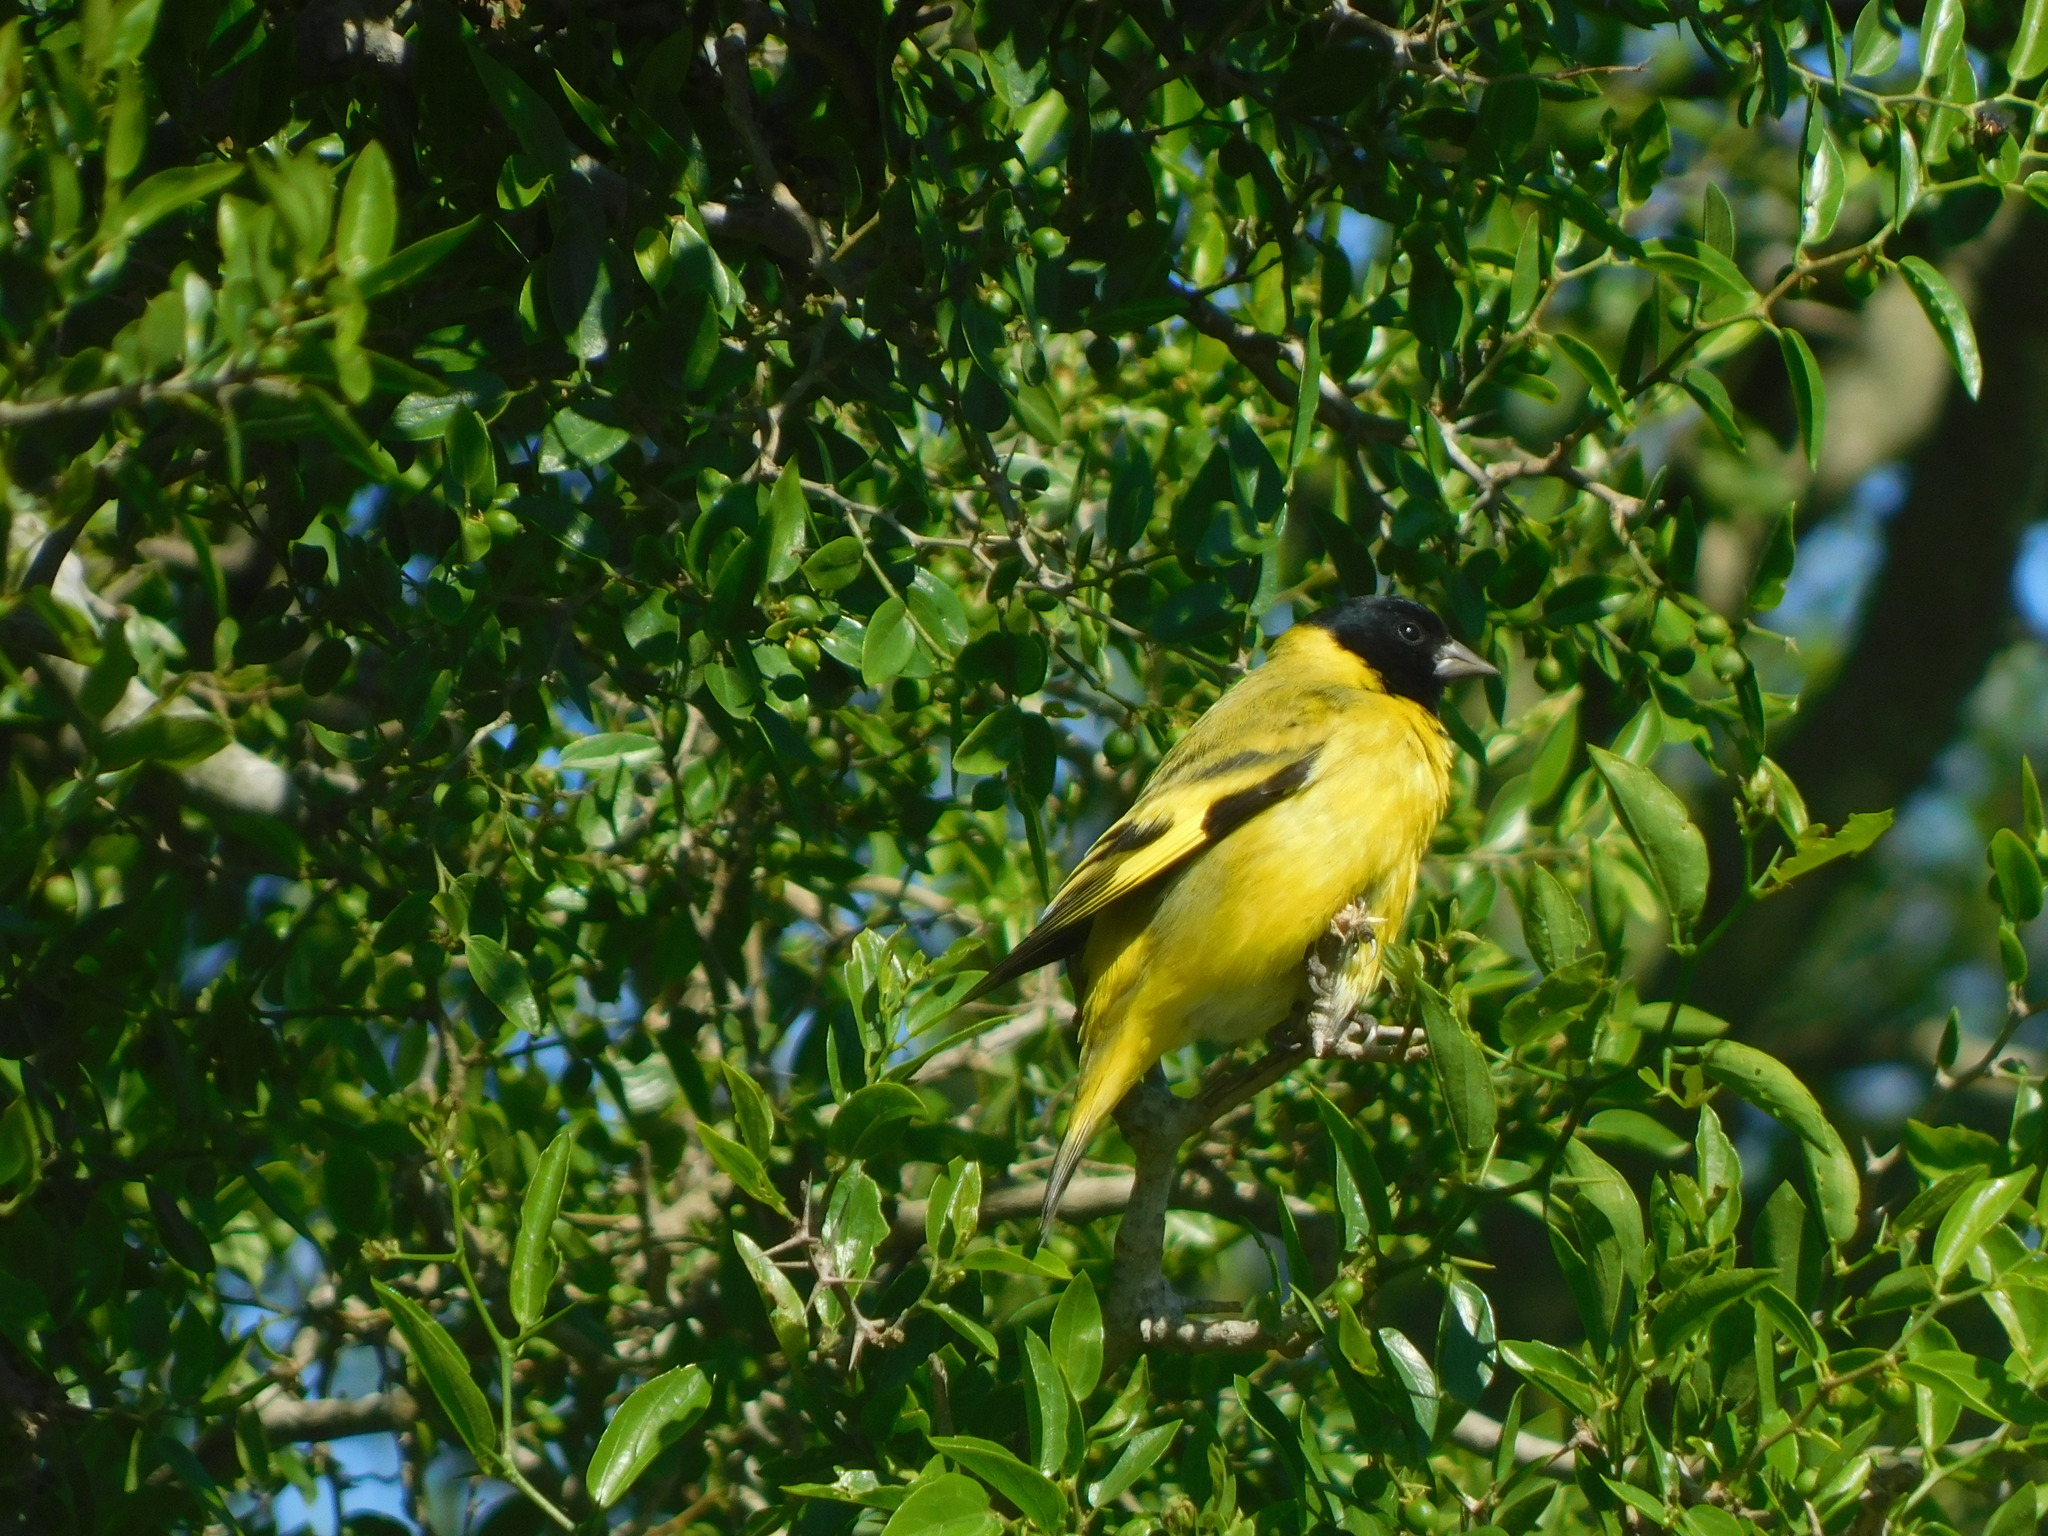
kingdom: Animalia
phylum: Chordata
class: Aves
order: Passeriformes
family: Fringillidae
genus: Spinus
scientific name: Spinus magellanicus
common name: Hooded siskin
